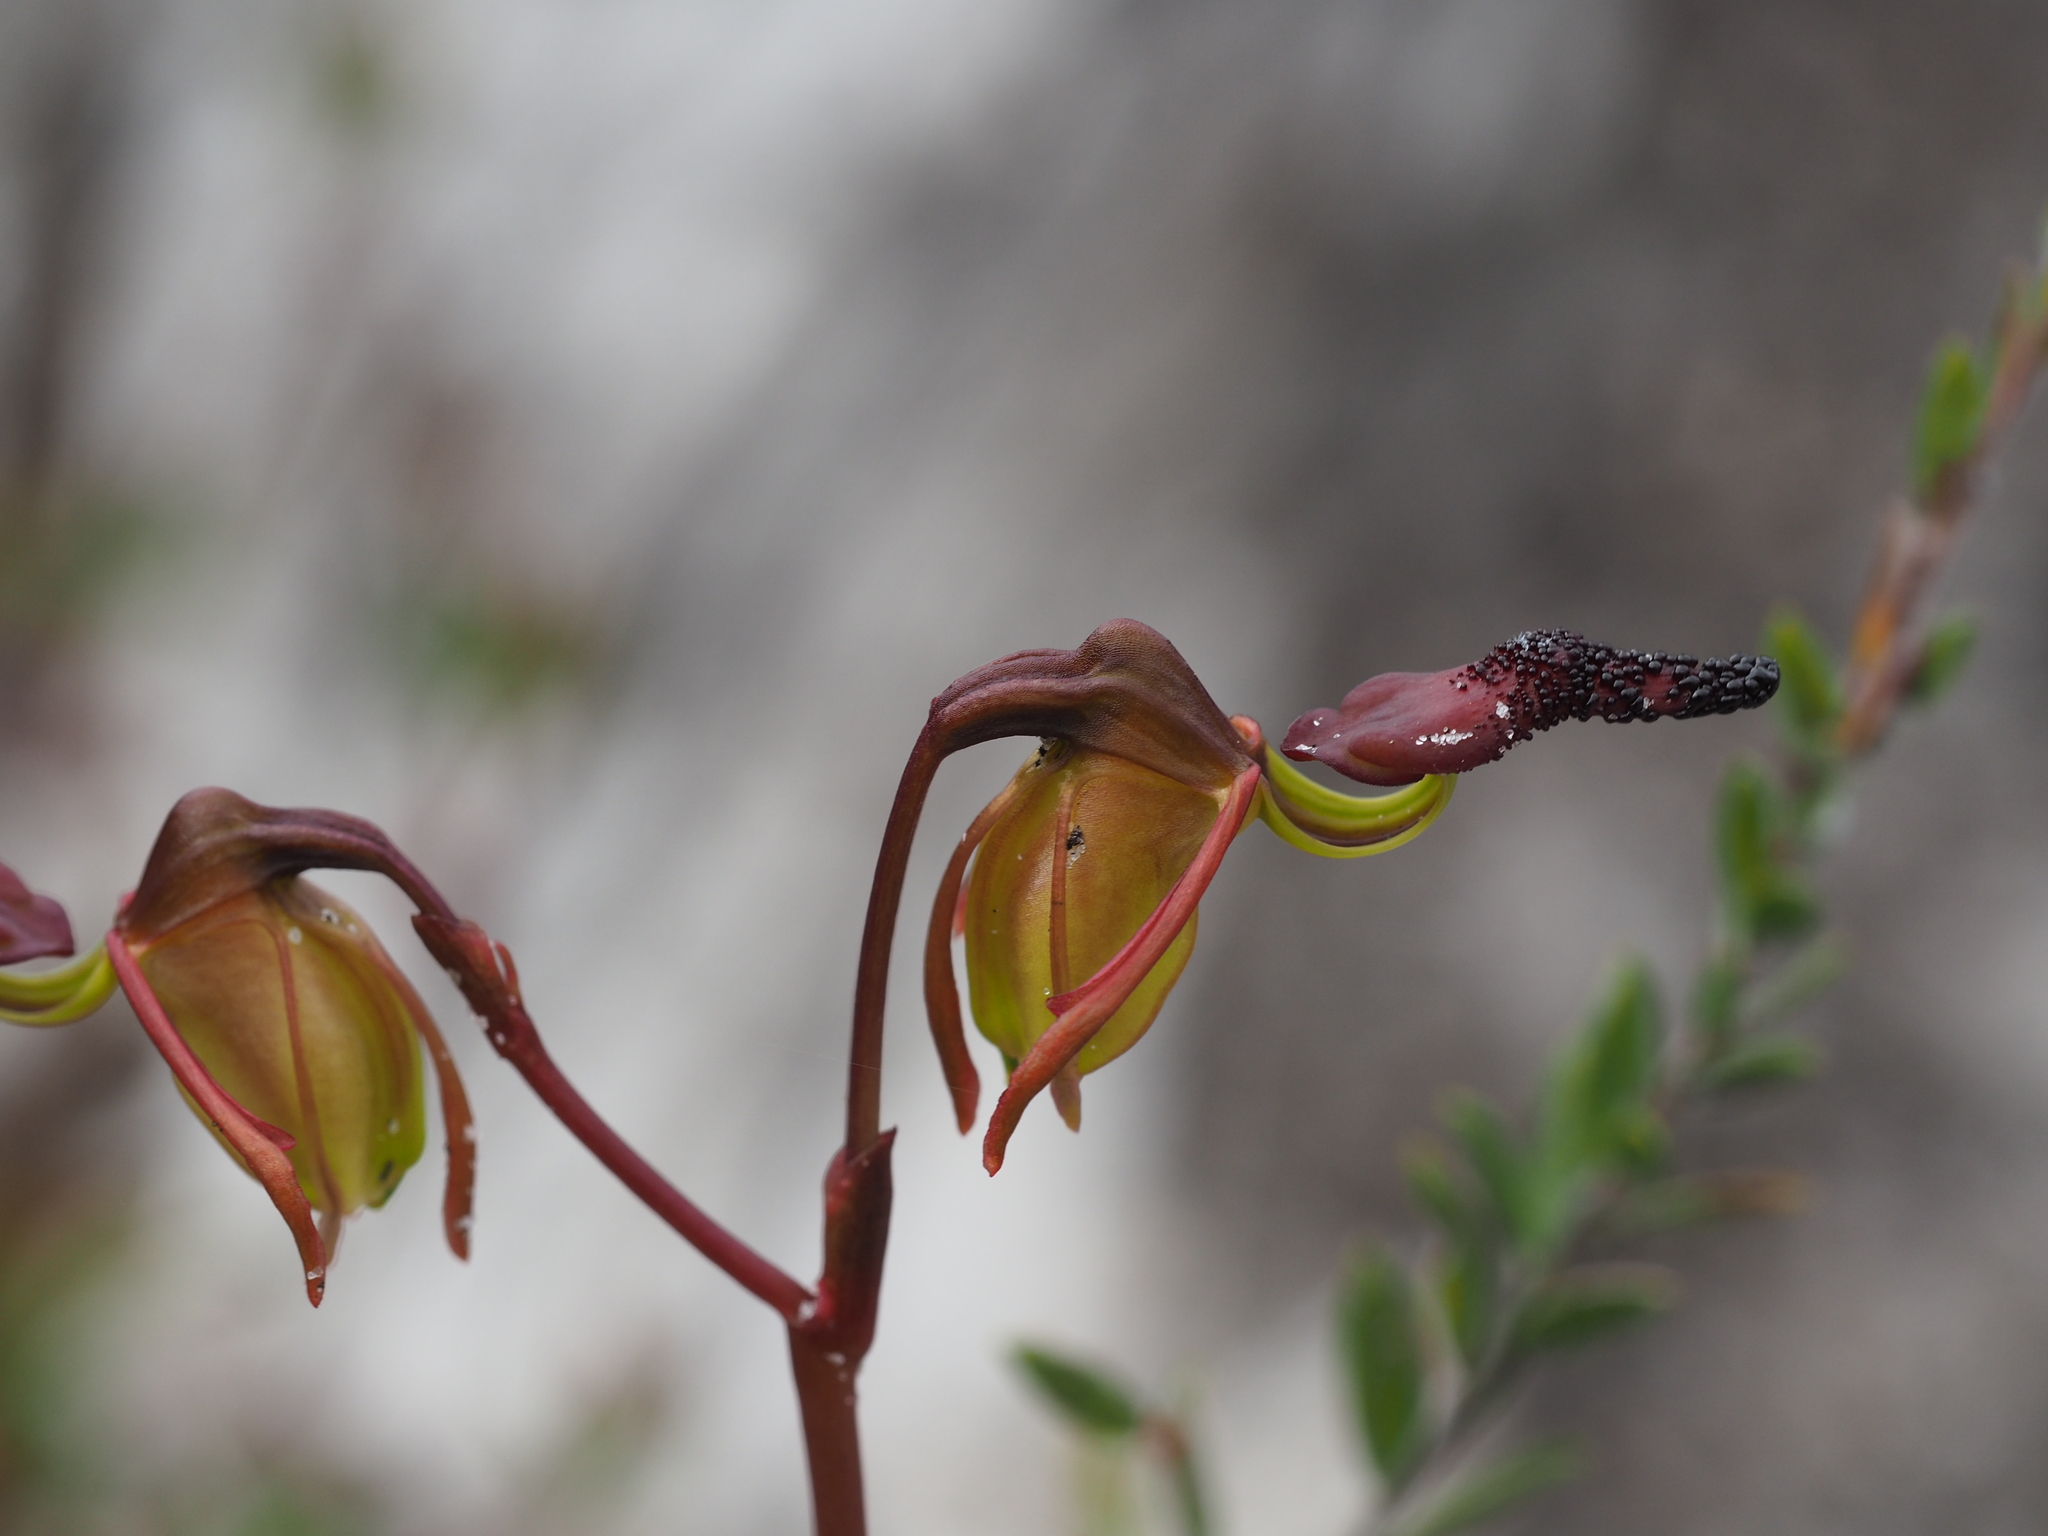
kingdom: Plantae
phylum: Tracheophyta
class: Liliopsida
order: Asparagales
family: Orchidaceae
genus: Caleana
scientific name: Caleana nigrita
